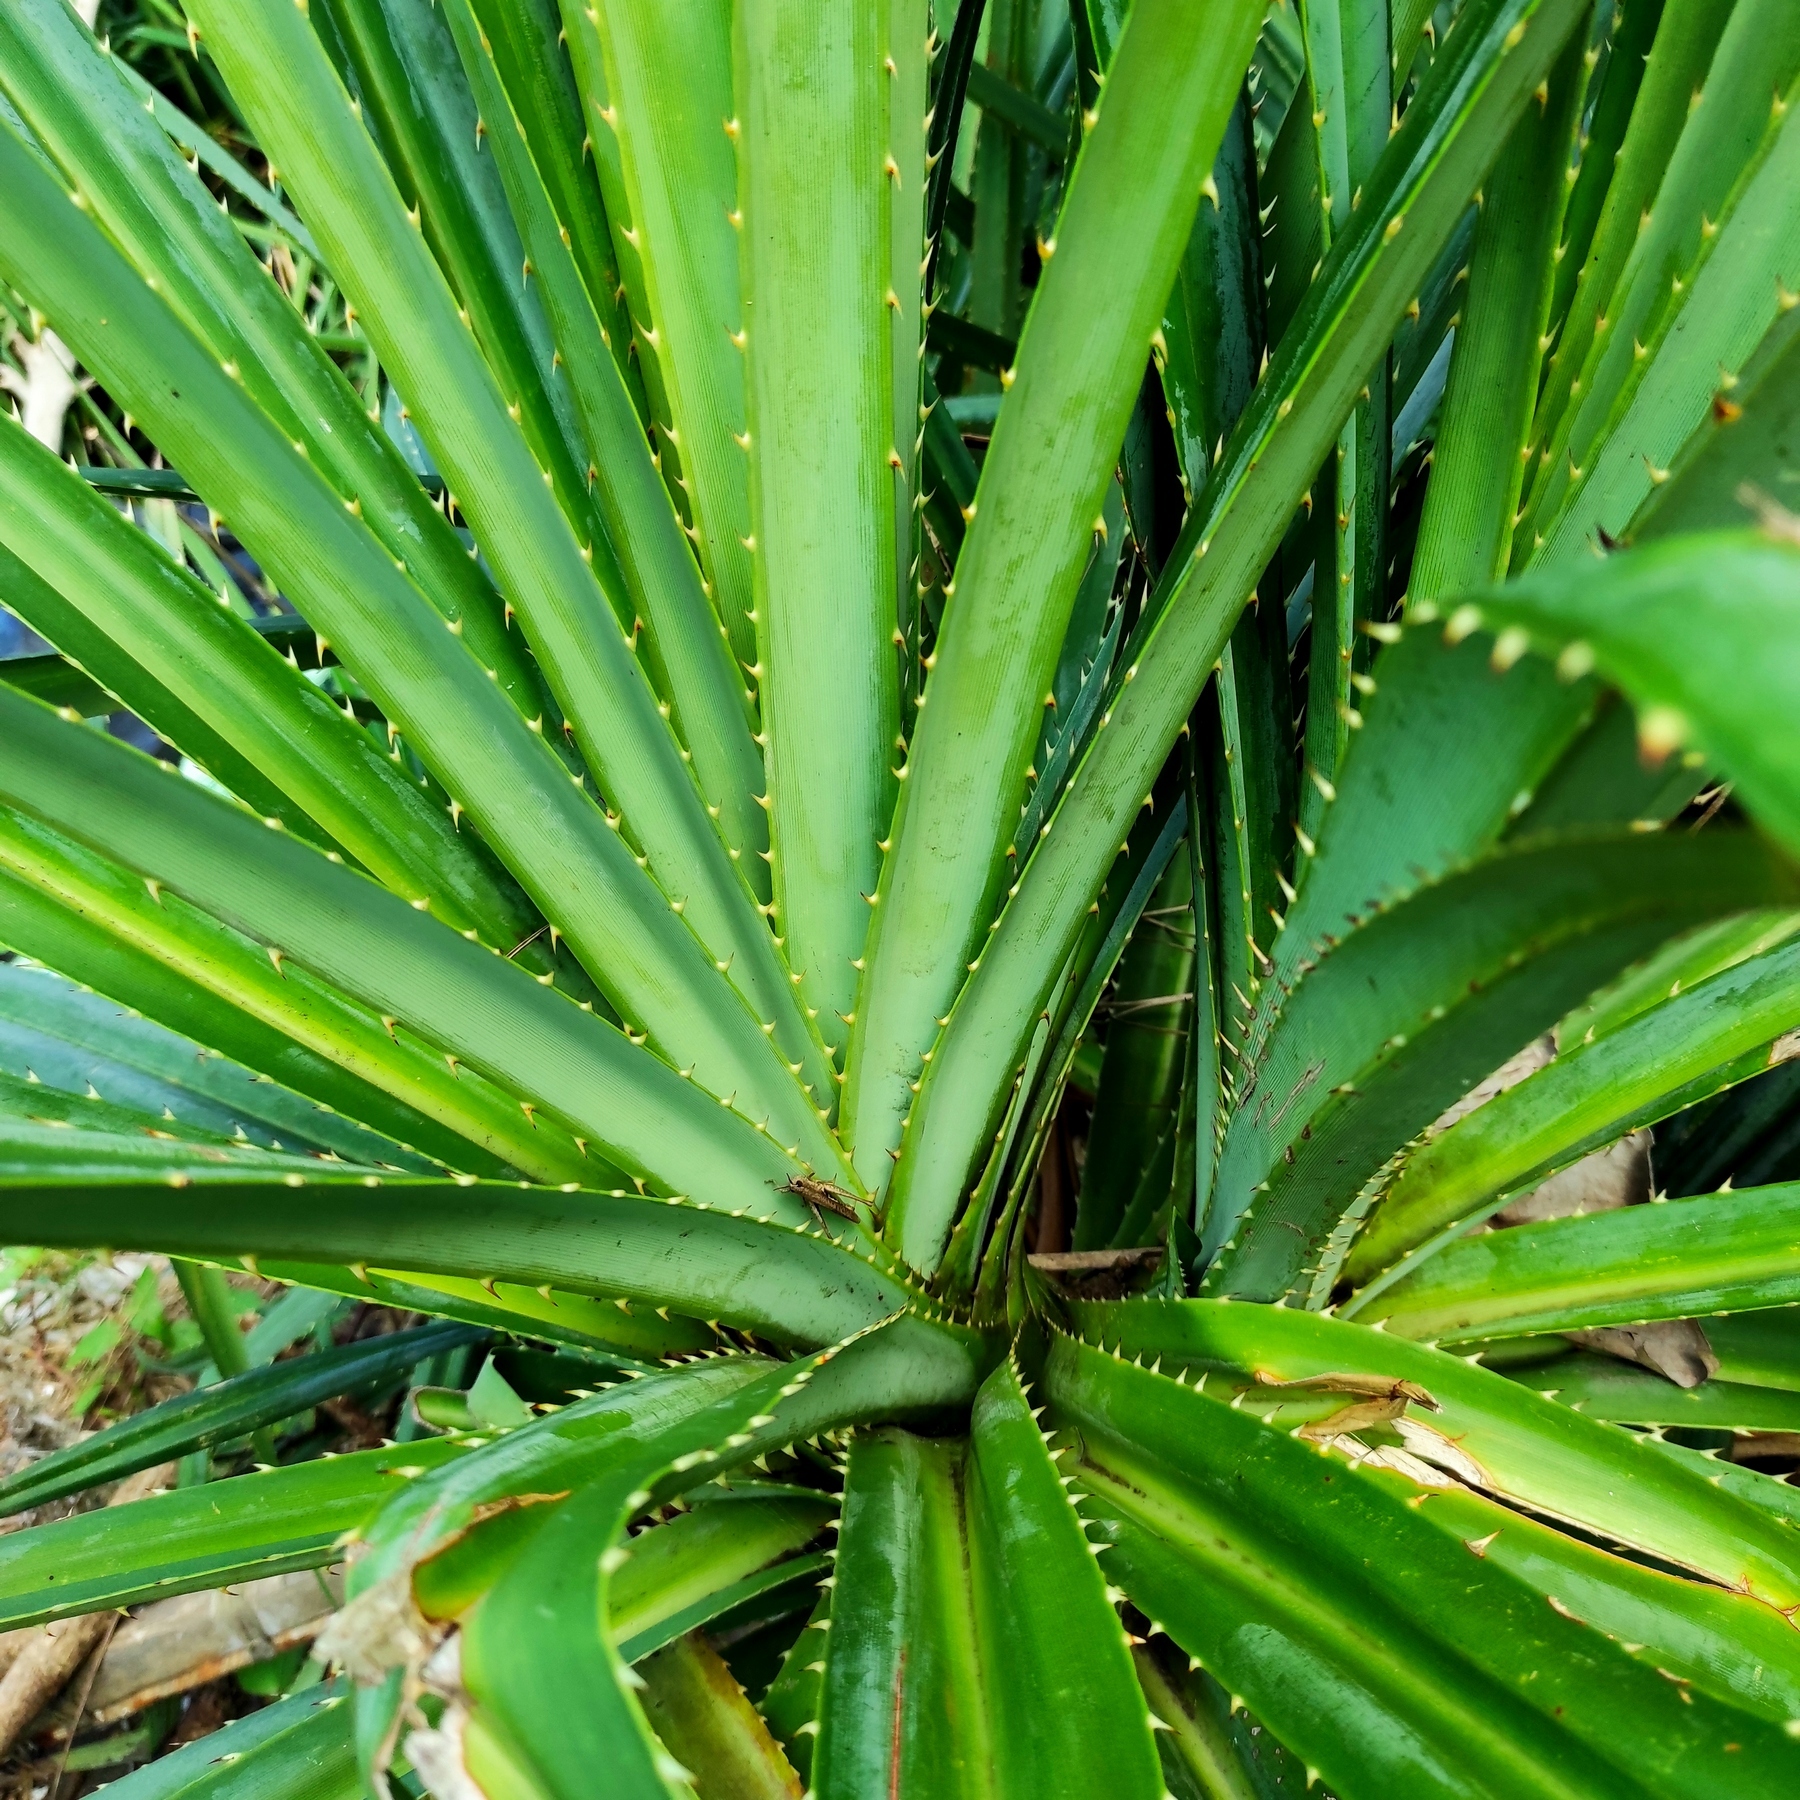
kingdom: Plantae
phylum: Tracheophyta
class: Liliopsida
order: Pandanales
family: Pandanaceae
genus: Pandanus
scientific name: Pandanus odorifer
